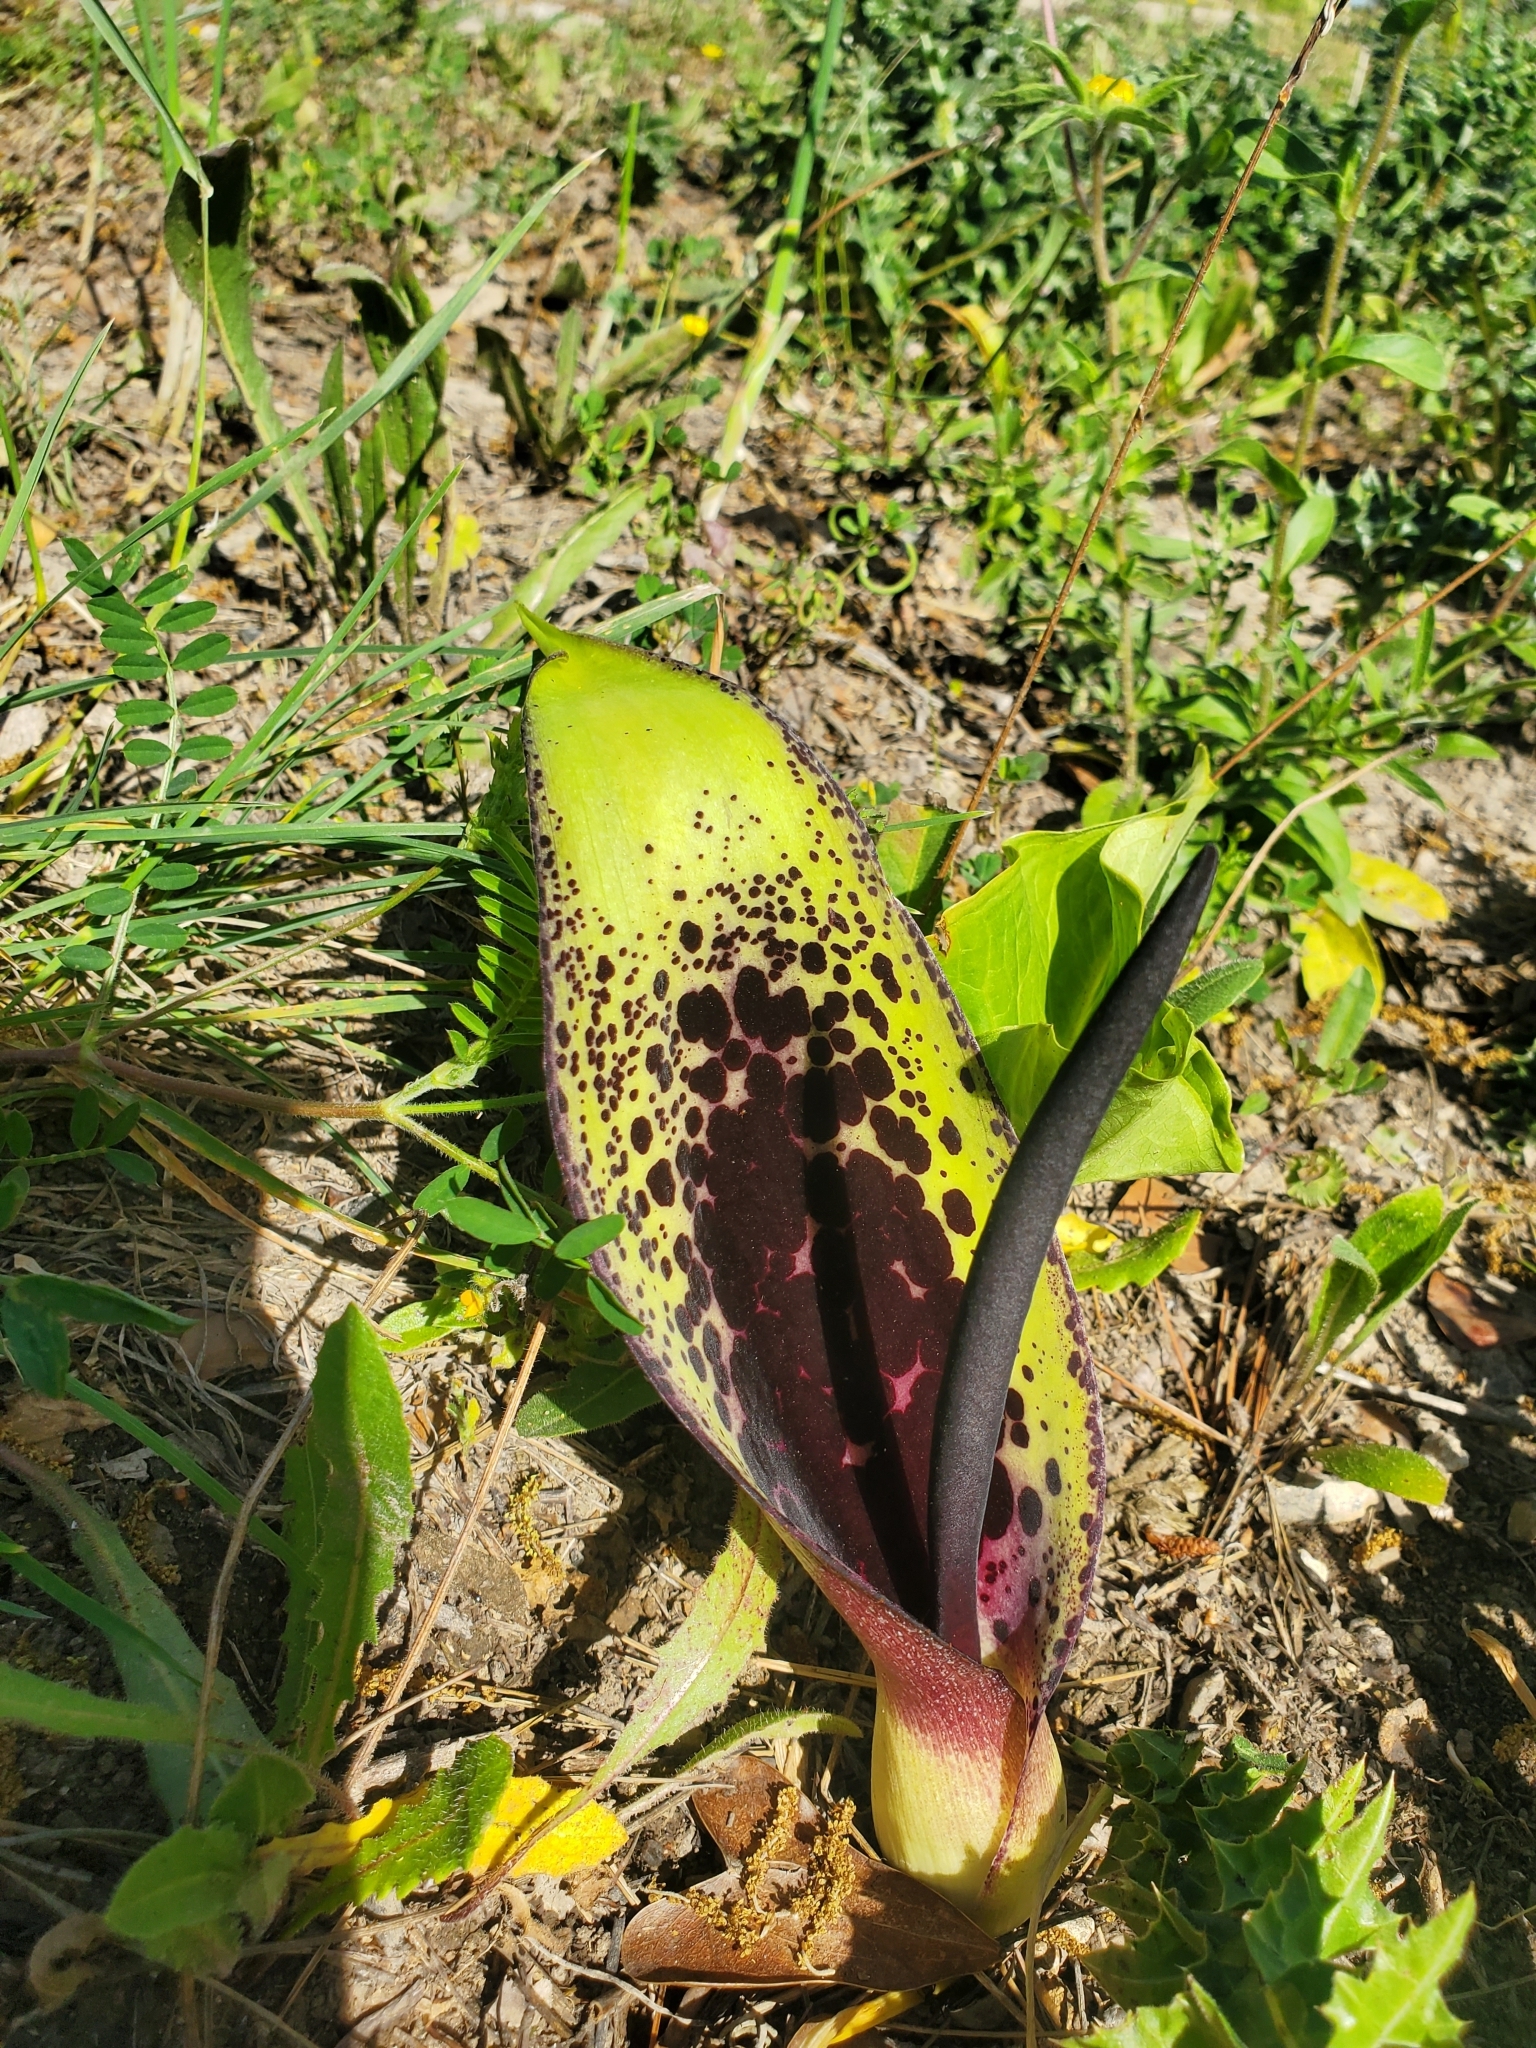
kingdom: Plantae
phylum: Tracheophyta
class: Liliopsida
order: Alismatales
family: Araceae
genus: Arum
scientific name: Arum dioscoridis
